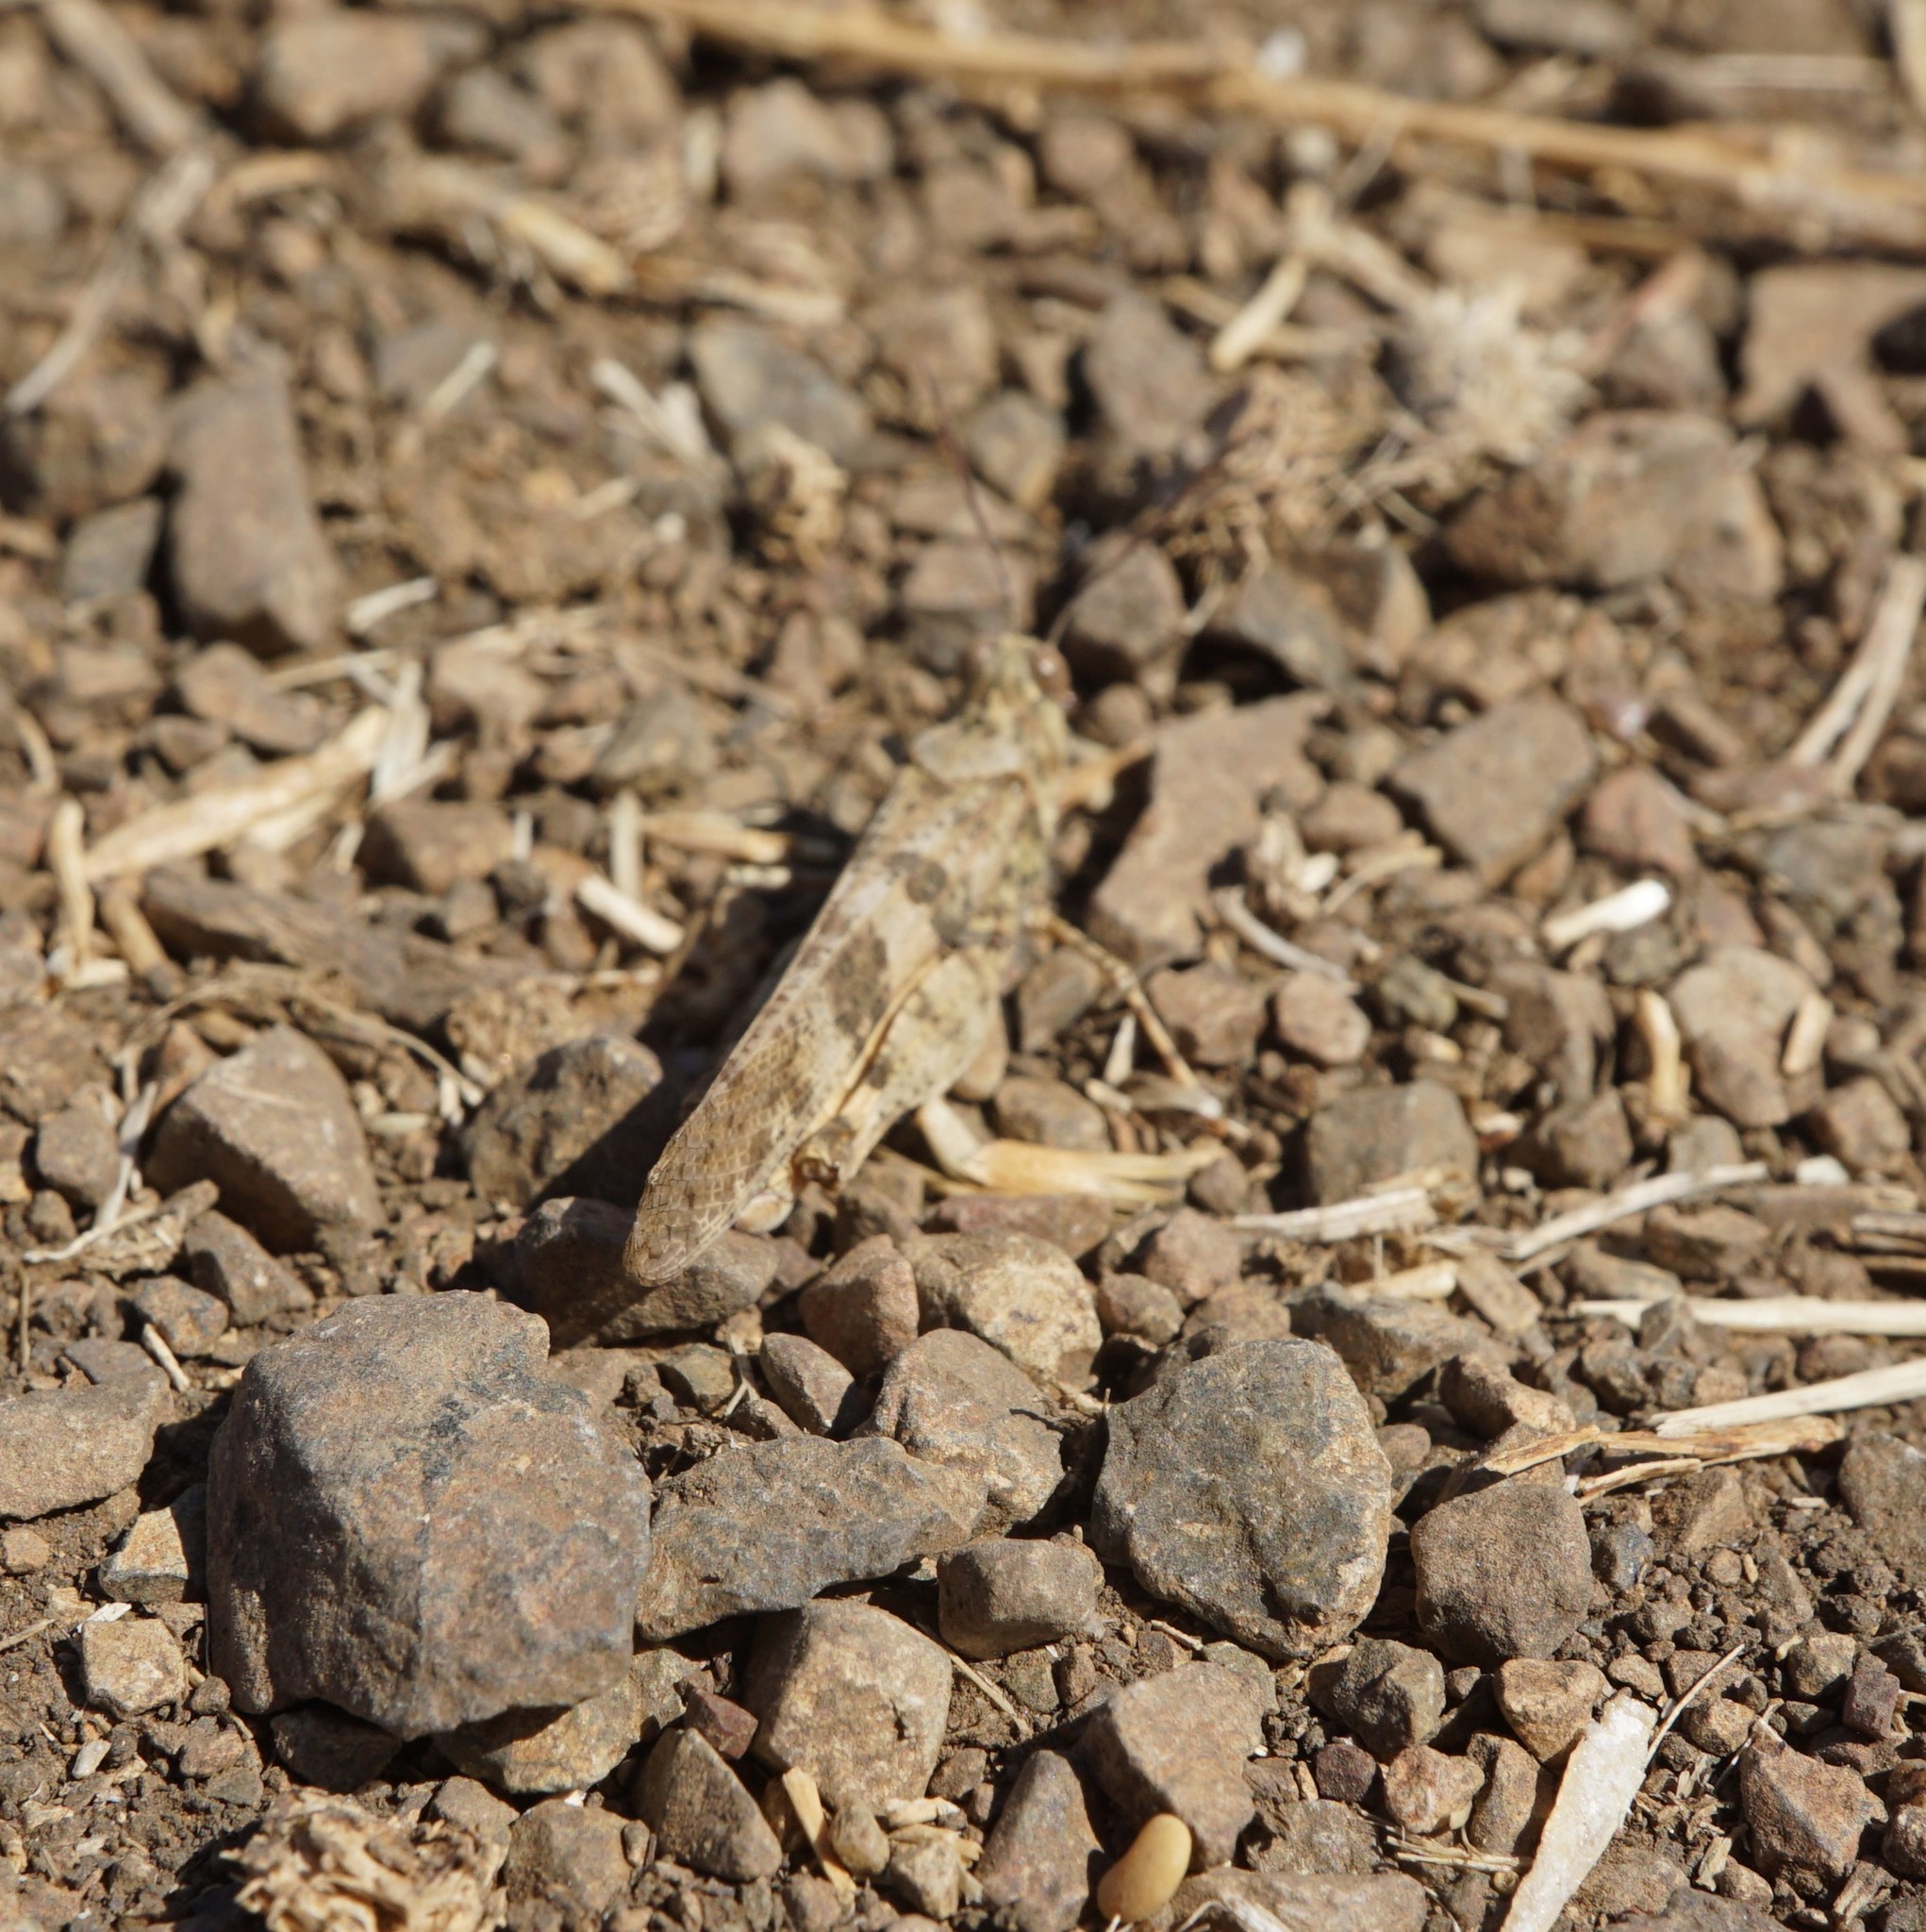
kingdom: Animalia
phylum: Arthropoda
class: Insecta
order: Orthoptera
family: Acrididae
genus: Trimerotropis
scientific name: Trimerotropis pallidipennis
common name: Pallid-winged grasshopper
